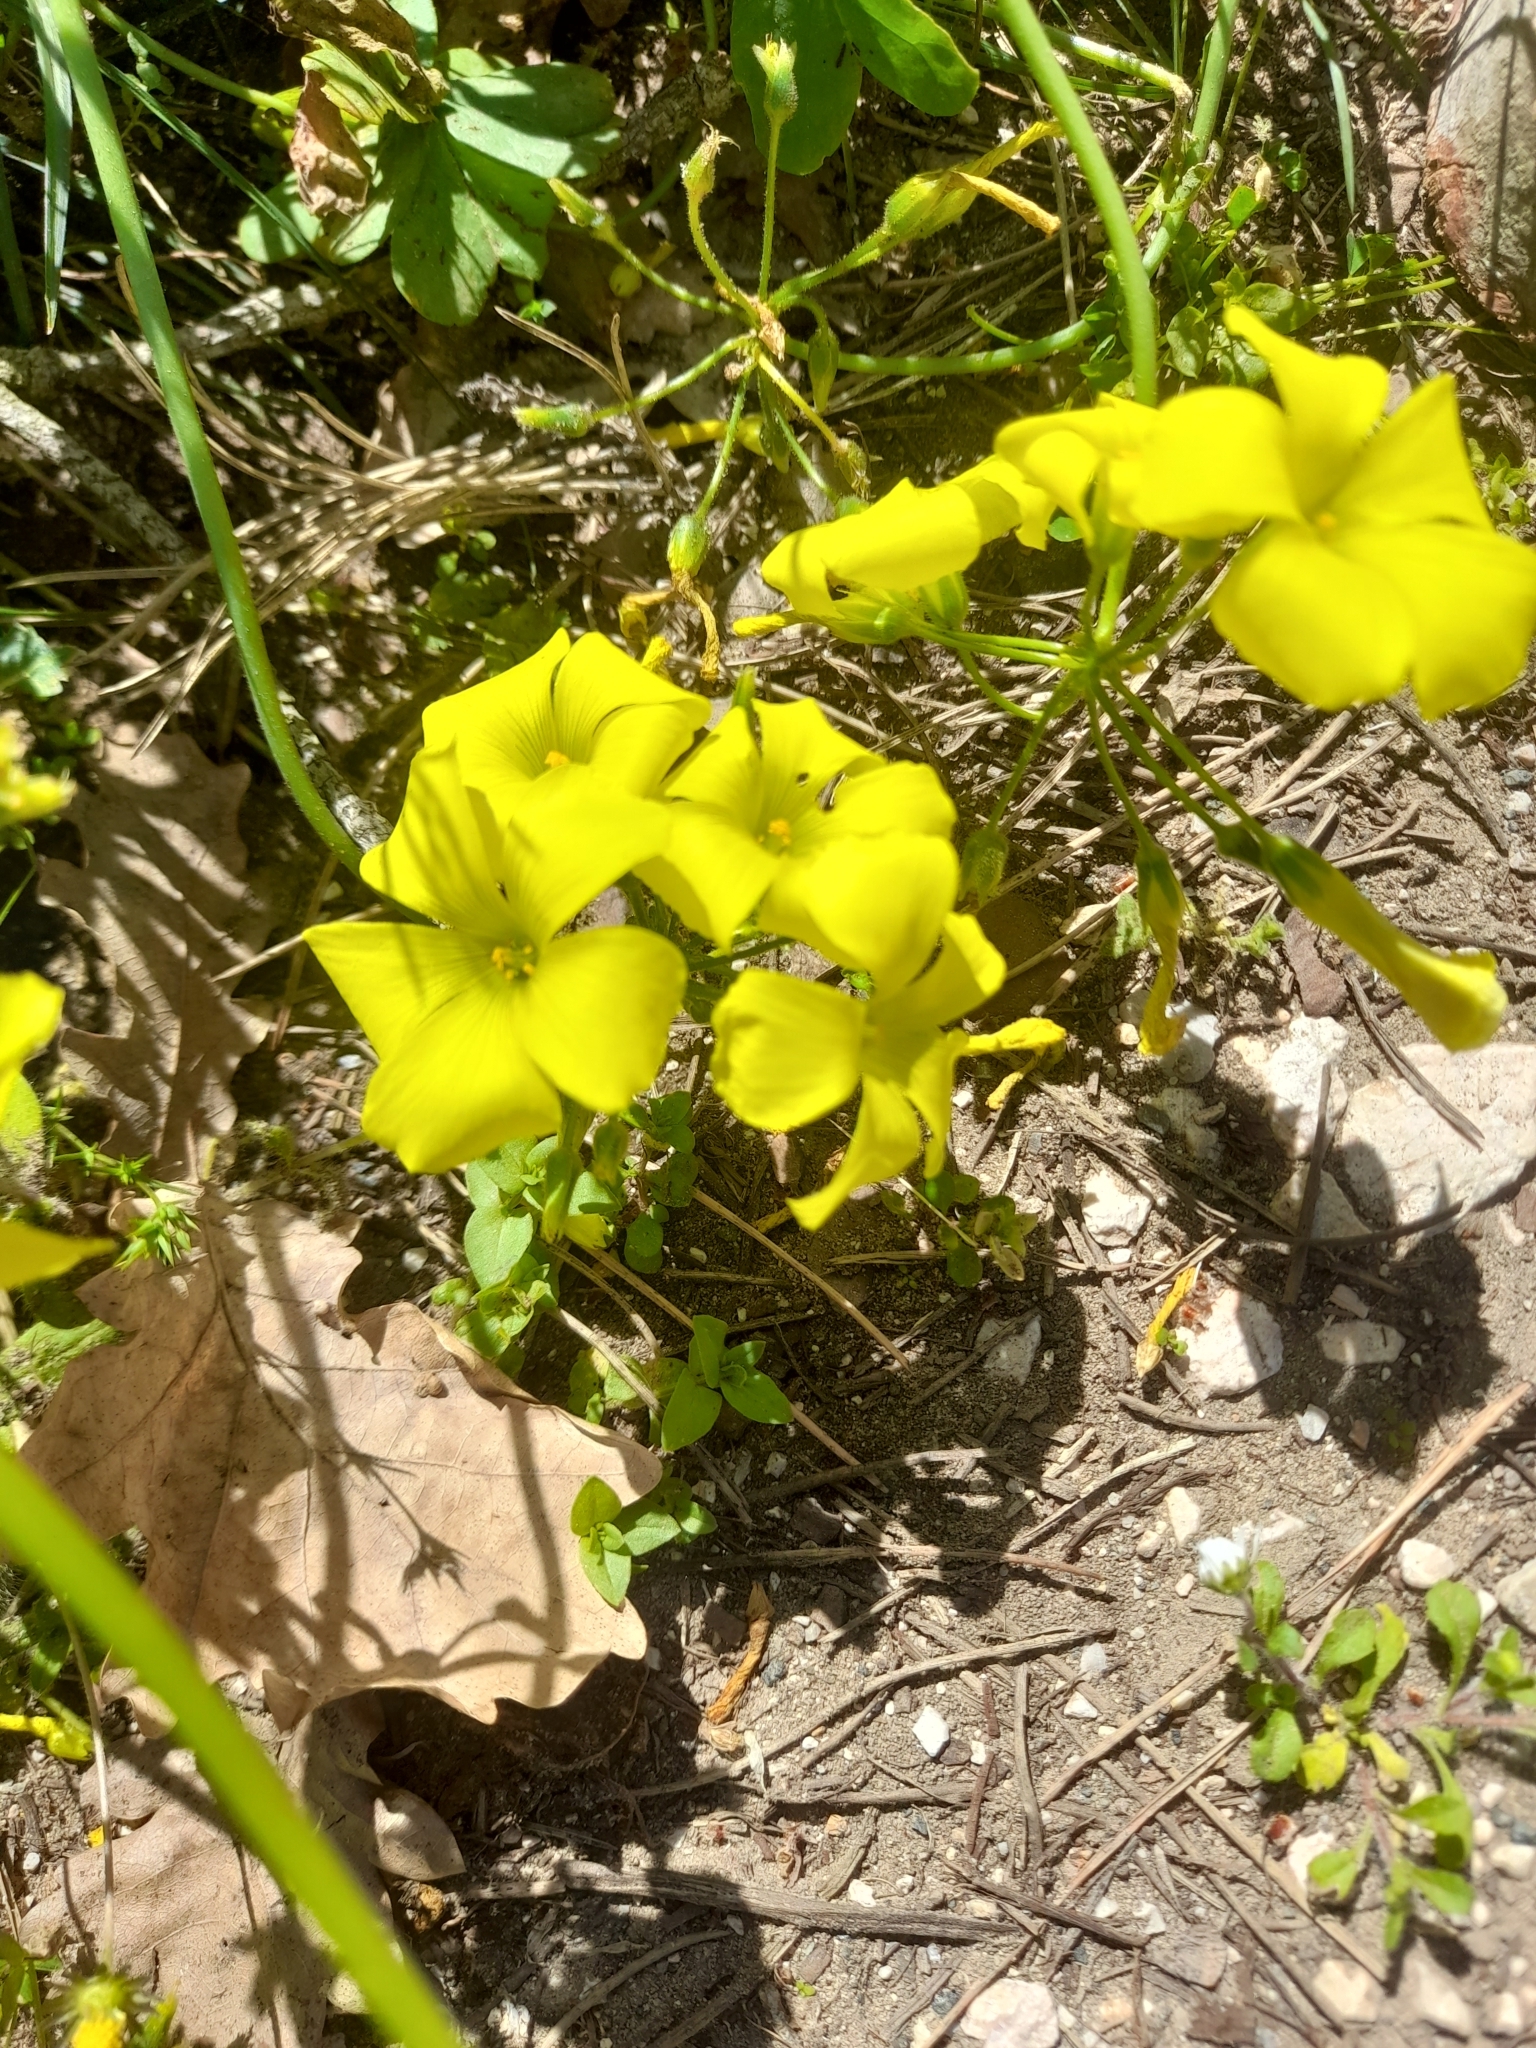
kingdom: Plantae
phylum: Tracheophyta
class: Magnoliopsida
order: Oxalidales
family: Oxalidaceae
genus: Oxalis
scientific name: Oxalis pes-caprae
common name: Bermuda-buttercup
